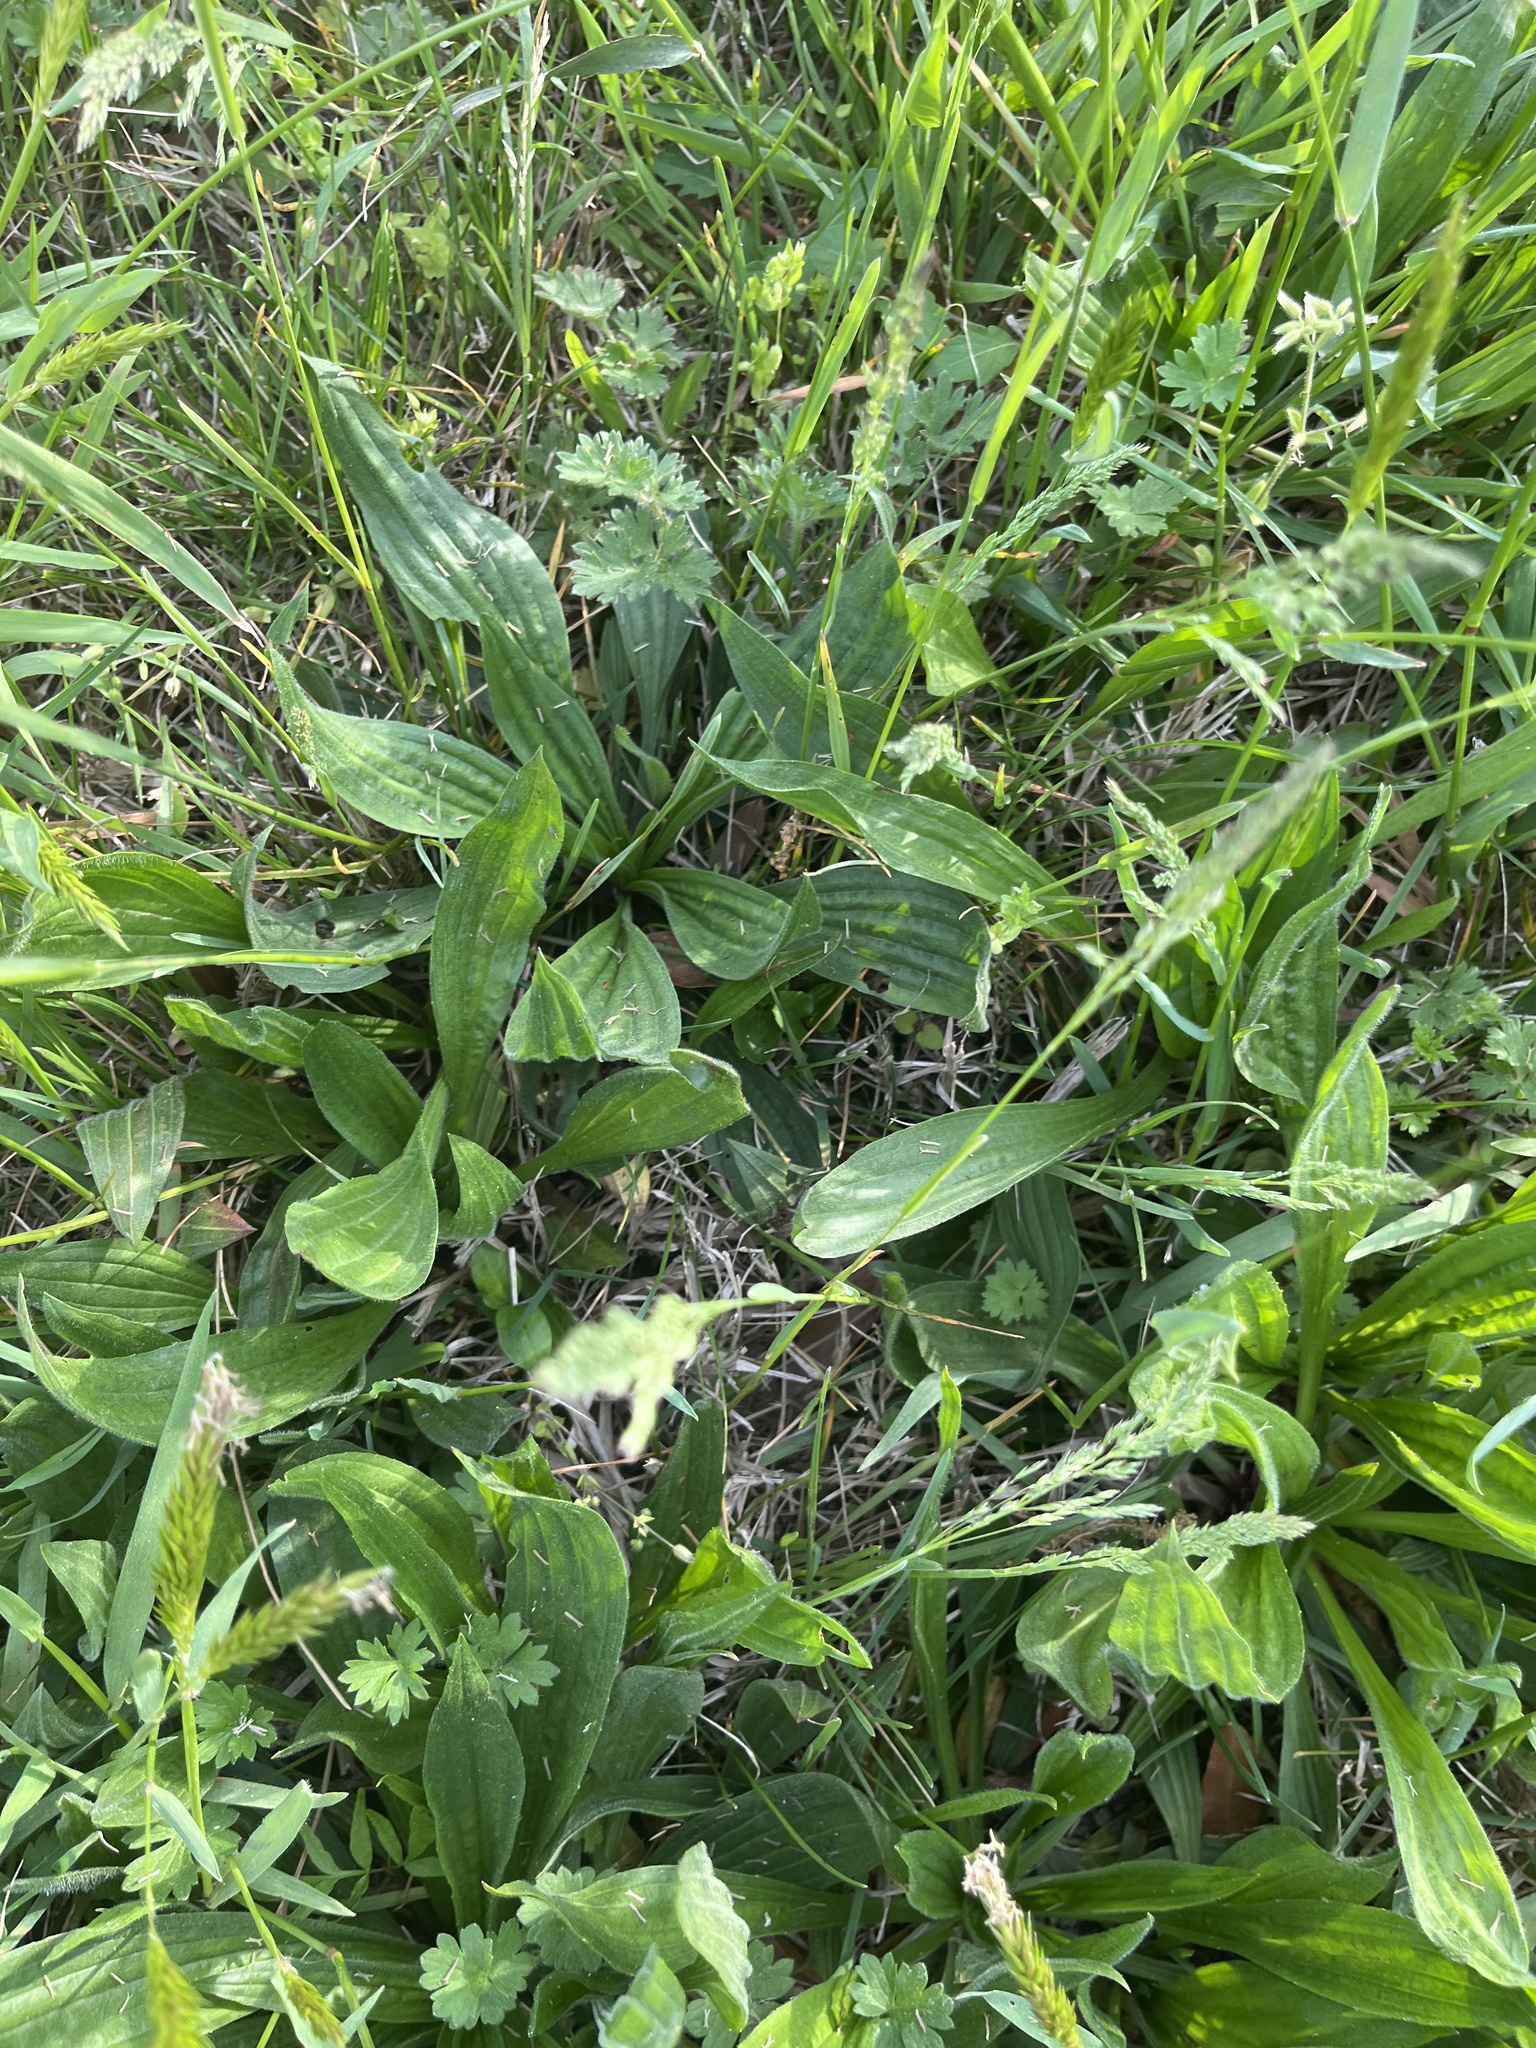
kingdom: Plantae
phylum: Tracheophyta
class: Magnoliopsida
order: Lamiales
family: Plantaginaceae
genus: Plantago
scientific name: Plantago lanceolata
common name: Ribwort plantain
